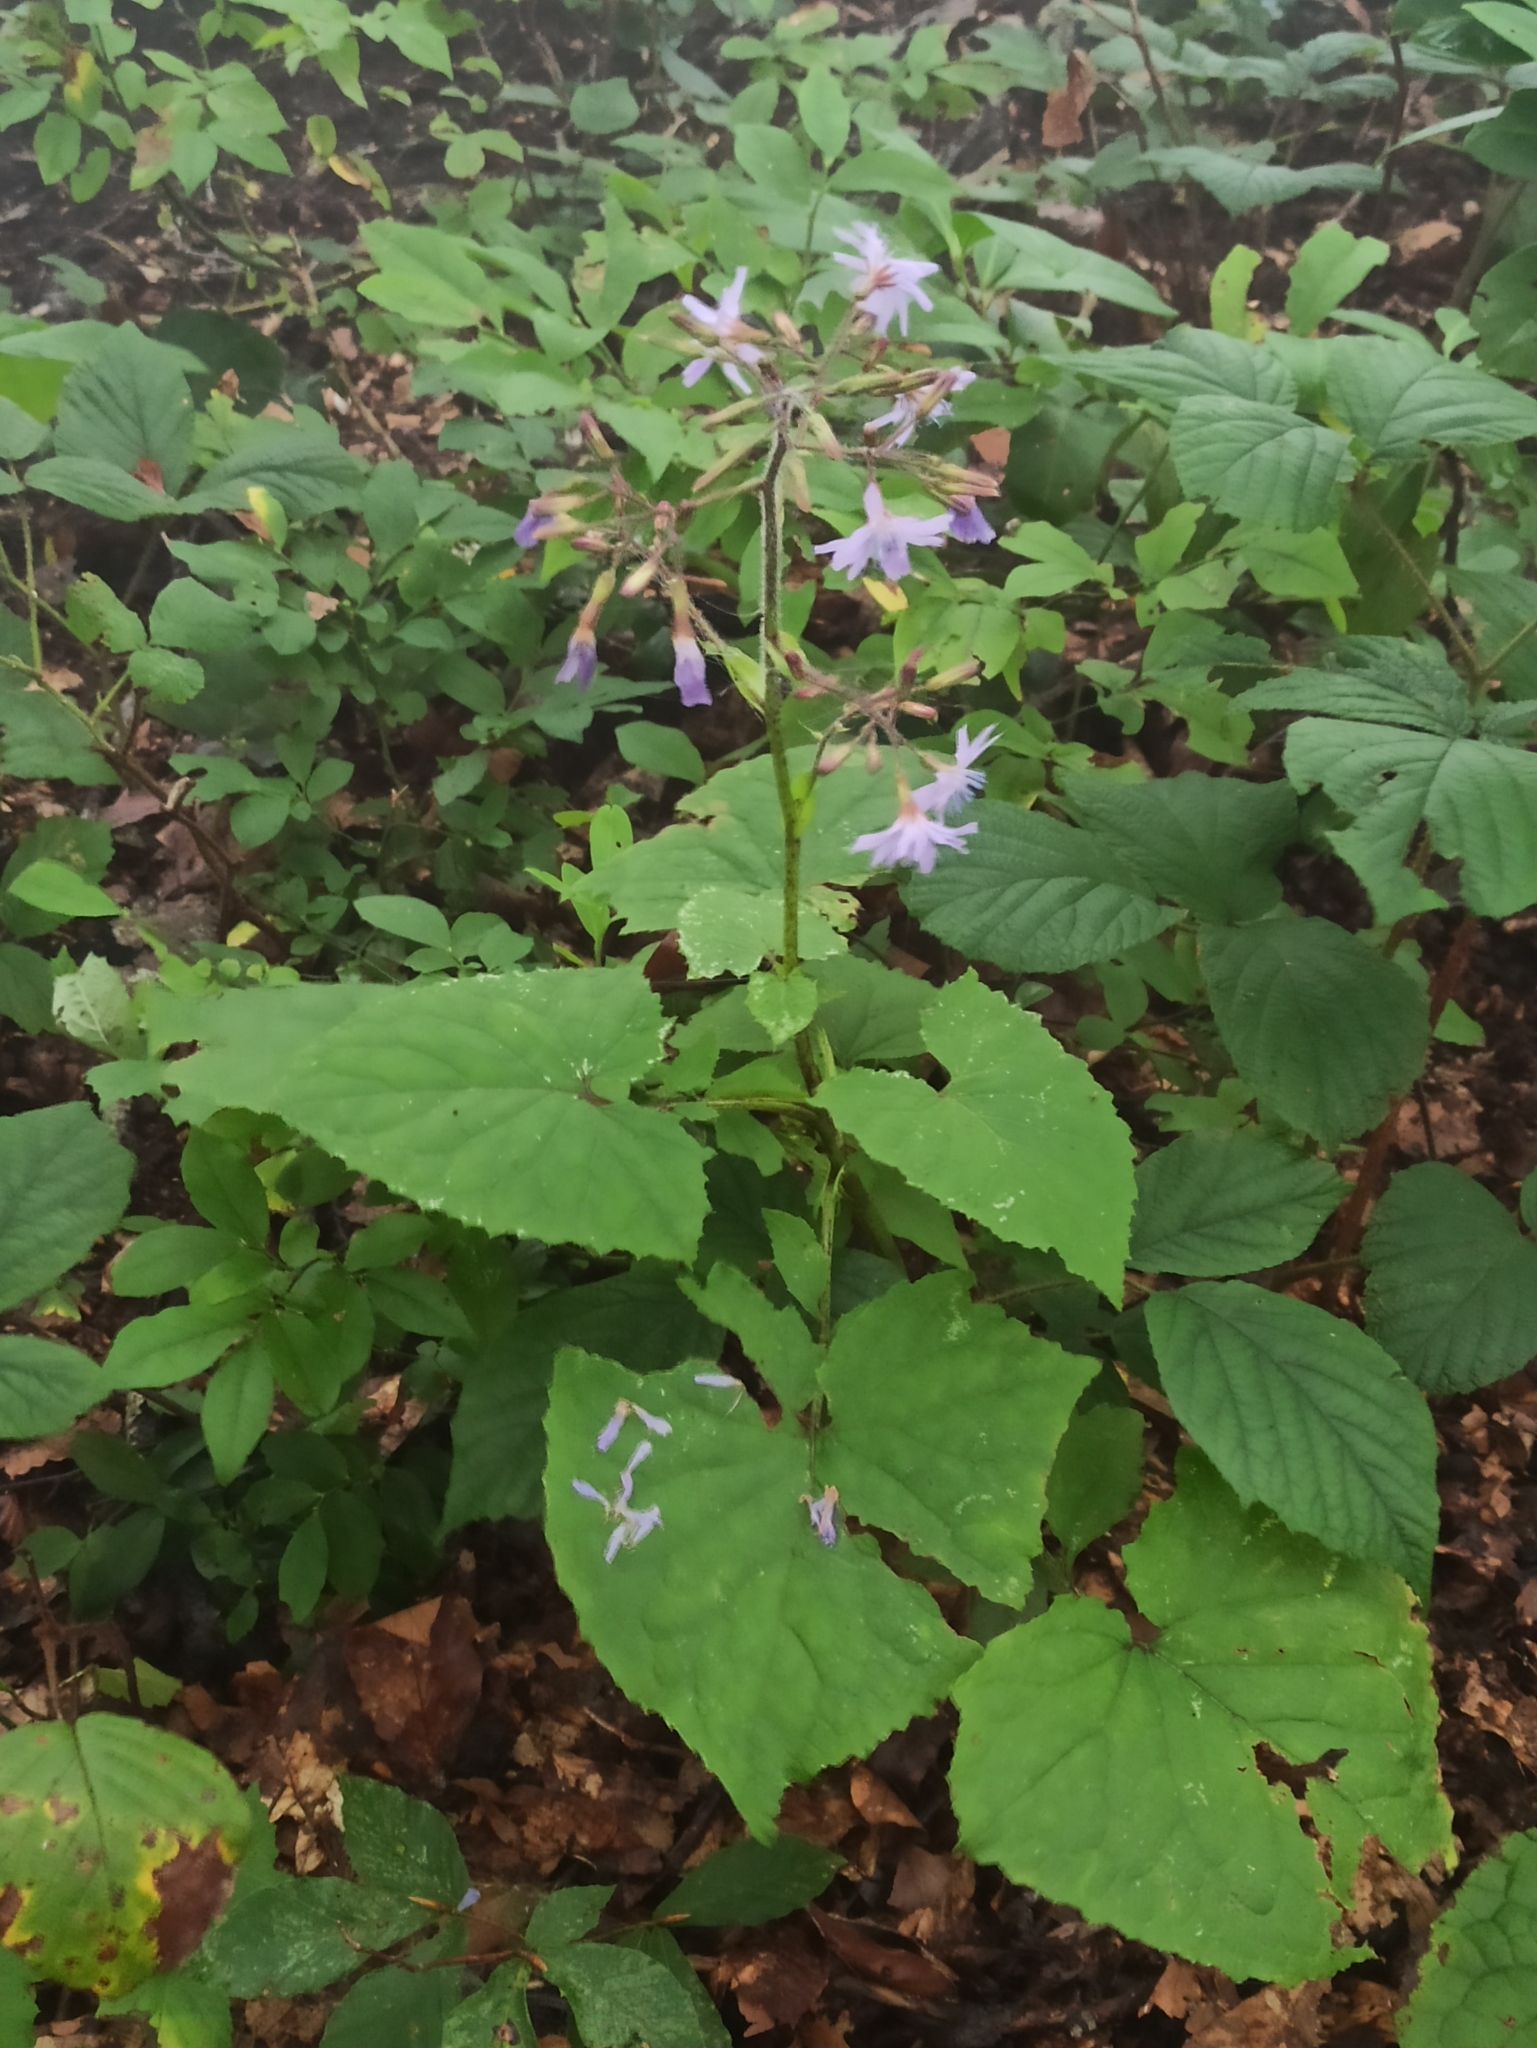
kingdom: Plantae
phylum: Tracheophyta
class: Magnoliopsida
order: Asterales
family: Asteraceae
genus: Lactuca
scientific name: Lactuca macrophylla
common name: Common blue-sow-thistle
